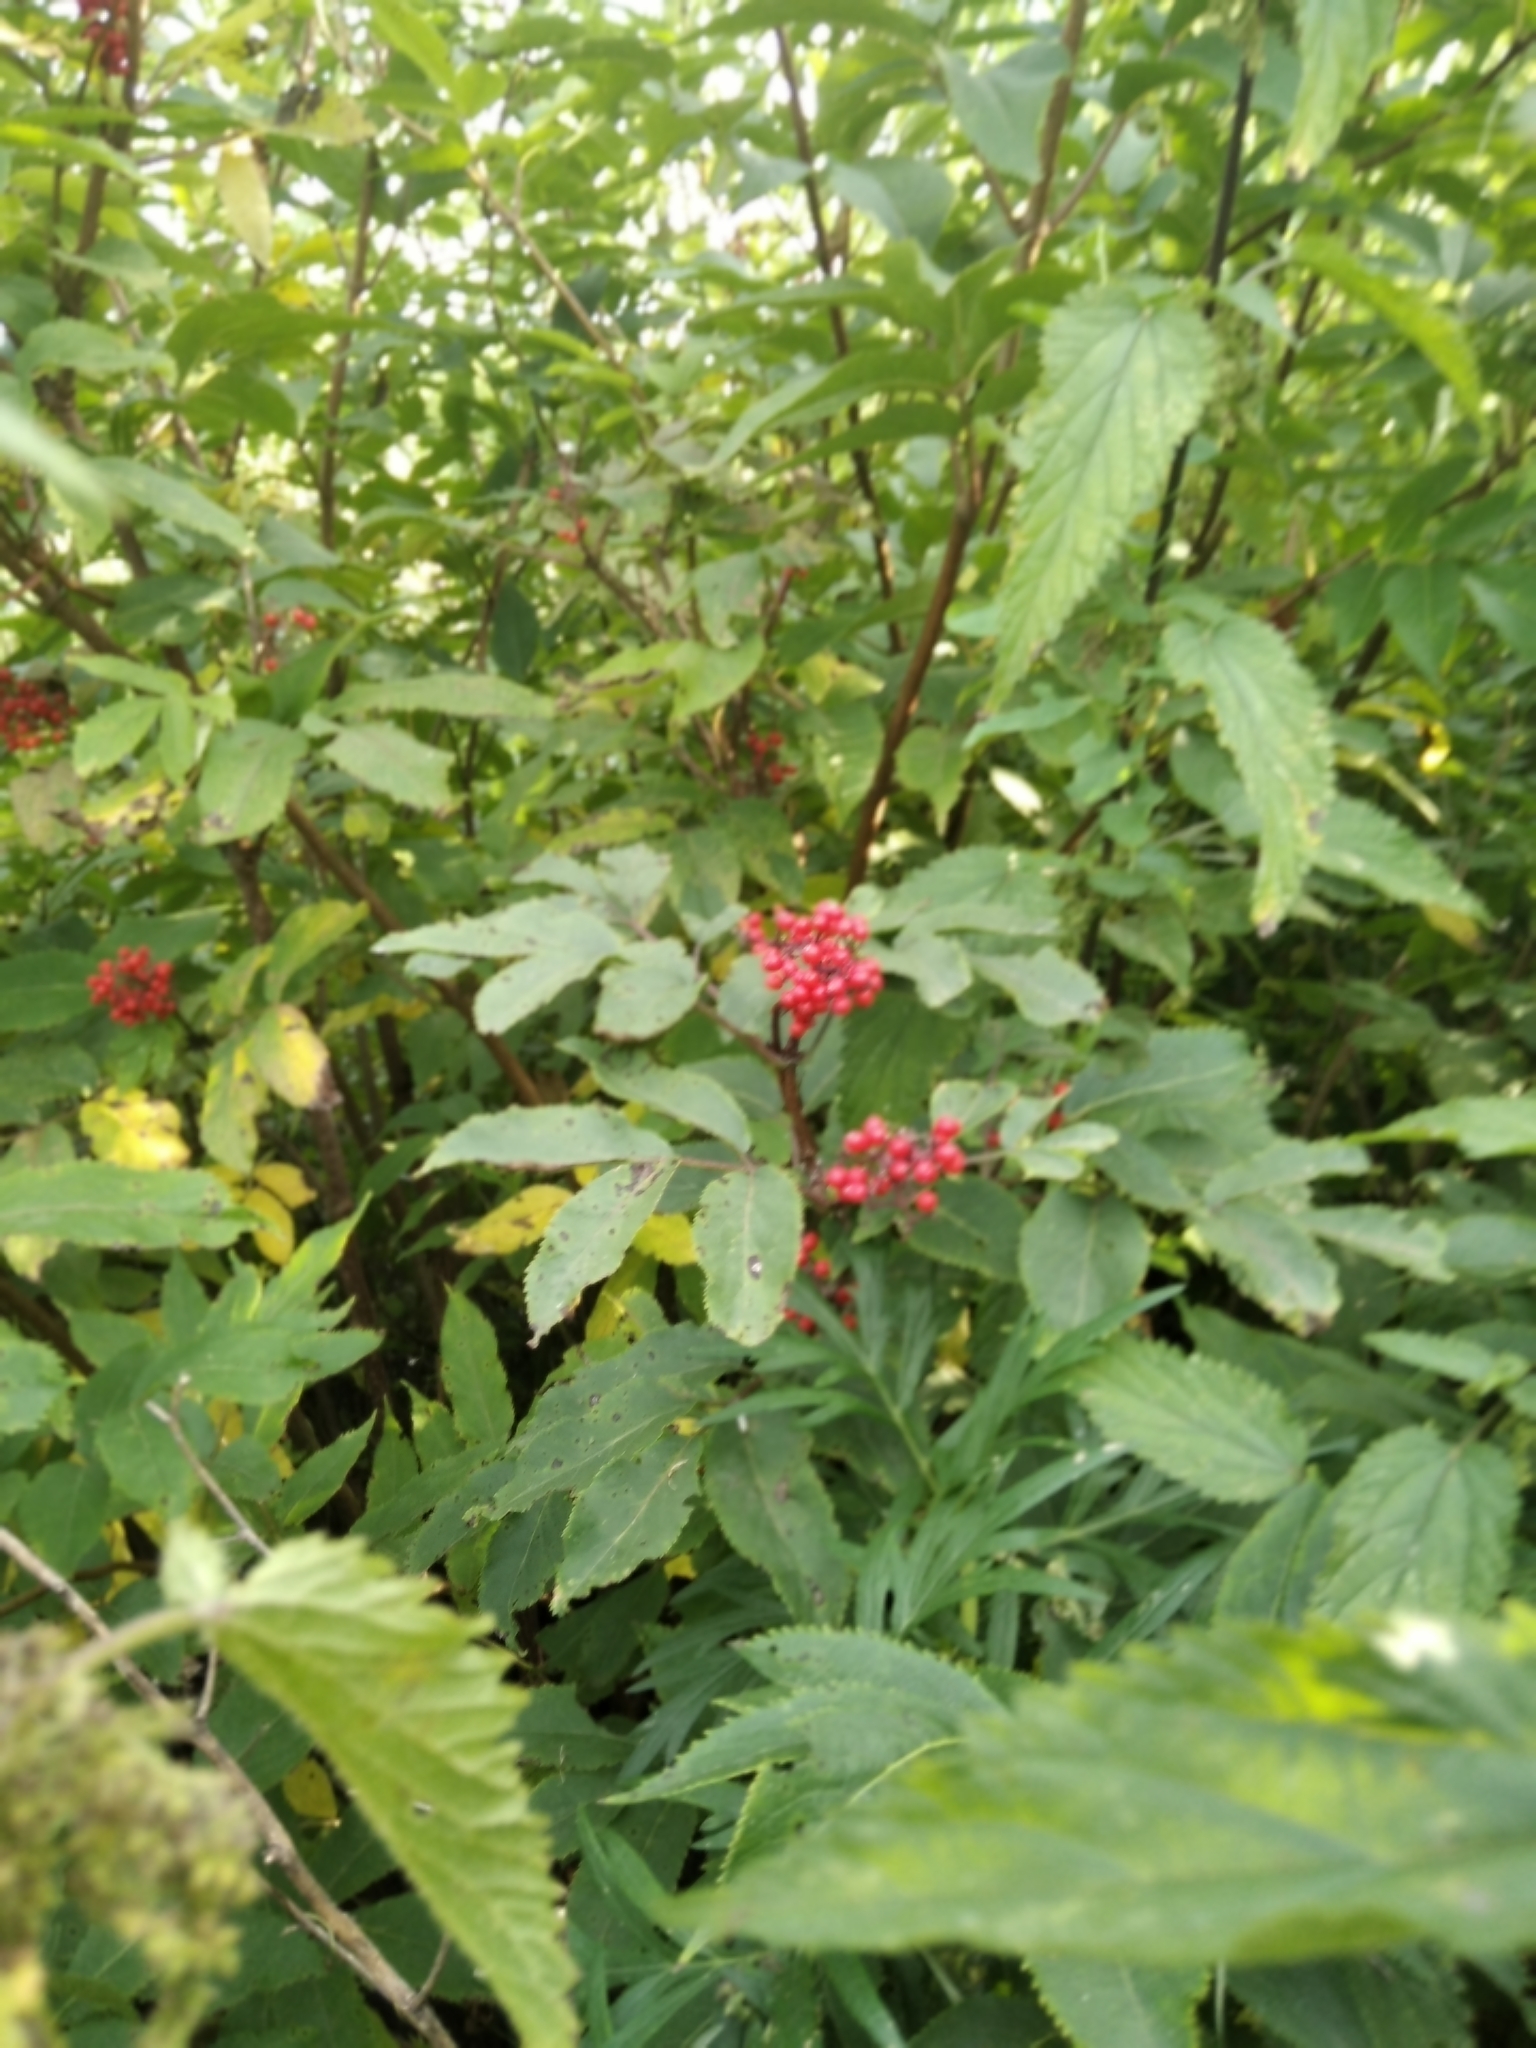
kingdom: Plantae
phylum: Tracheophyta
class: Magnoliopsida
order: Dipsacales
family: Viburnaceae
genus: Sambucus
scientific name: Sambucus racemosa
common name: Red-berried elder
